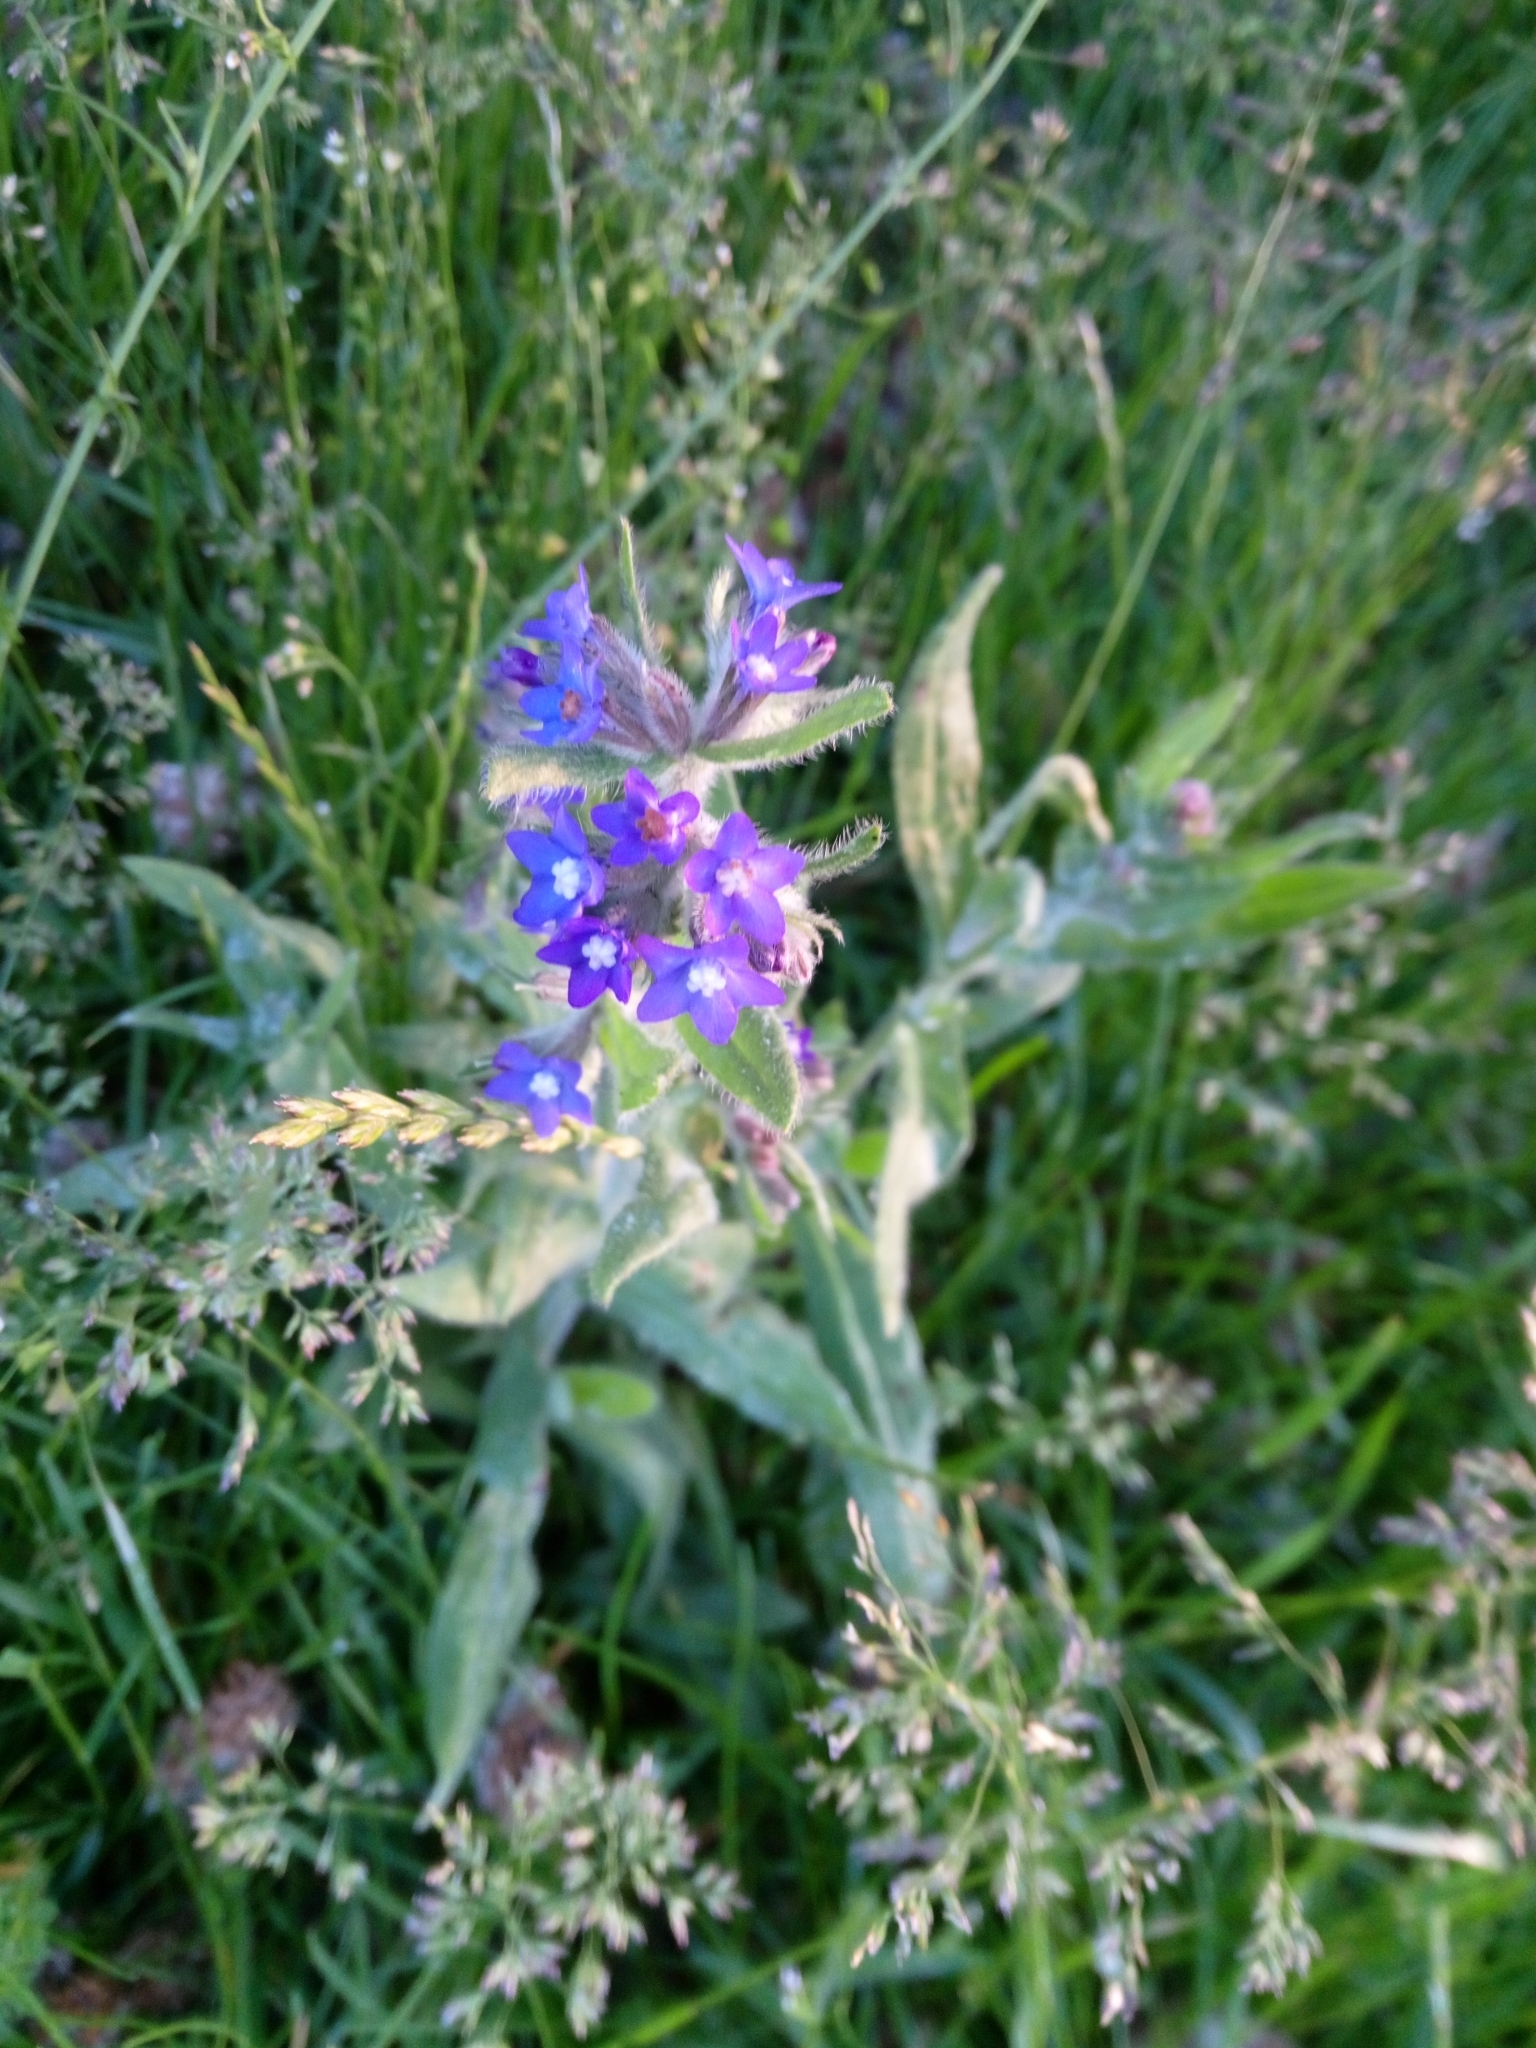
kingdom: Plantae
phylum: Tracheophyta
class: Magnoliopsida
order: Boraginales
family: Boraginaceae
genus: Anchusa
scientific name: Anchusa officinalis
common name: Alkanet
